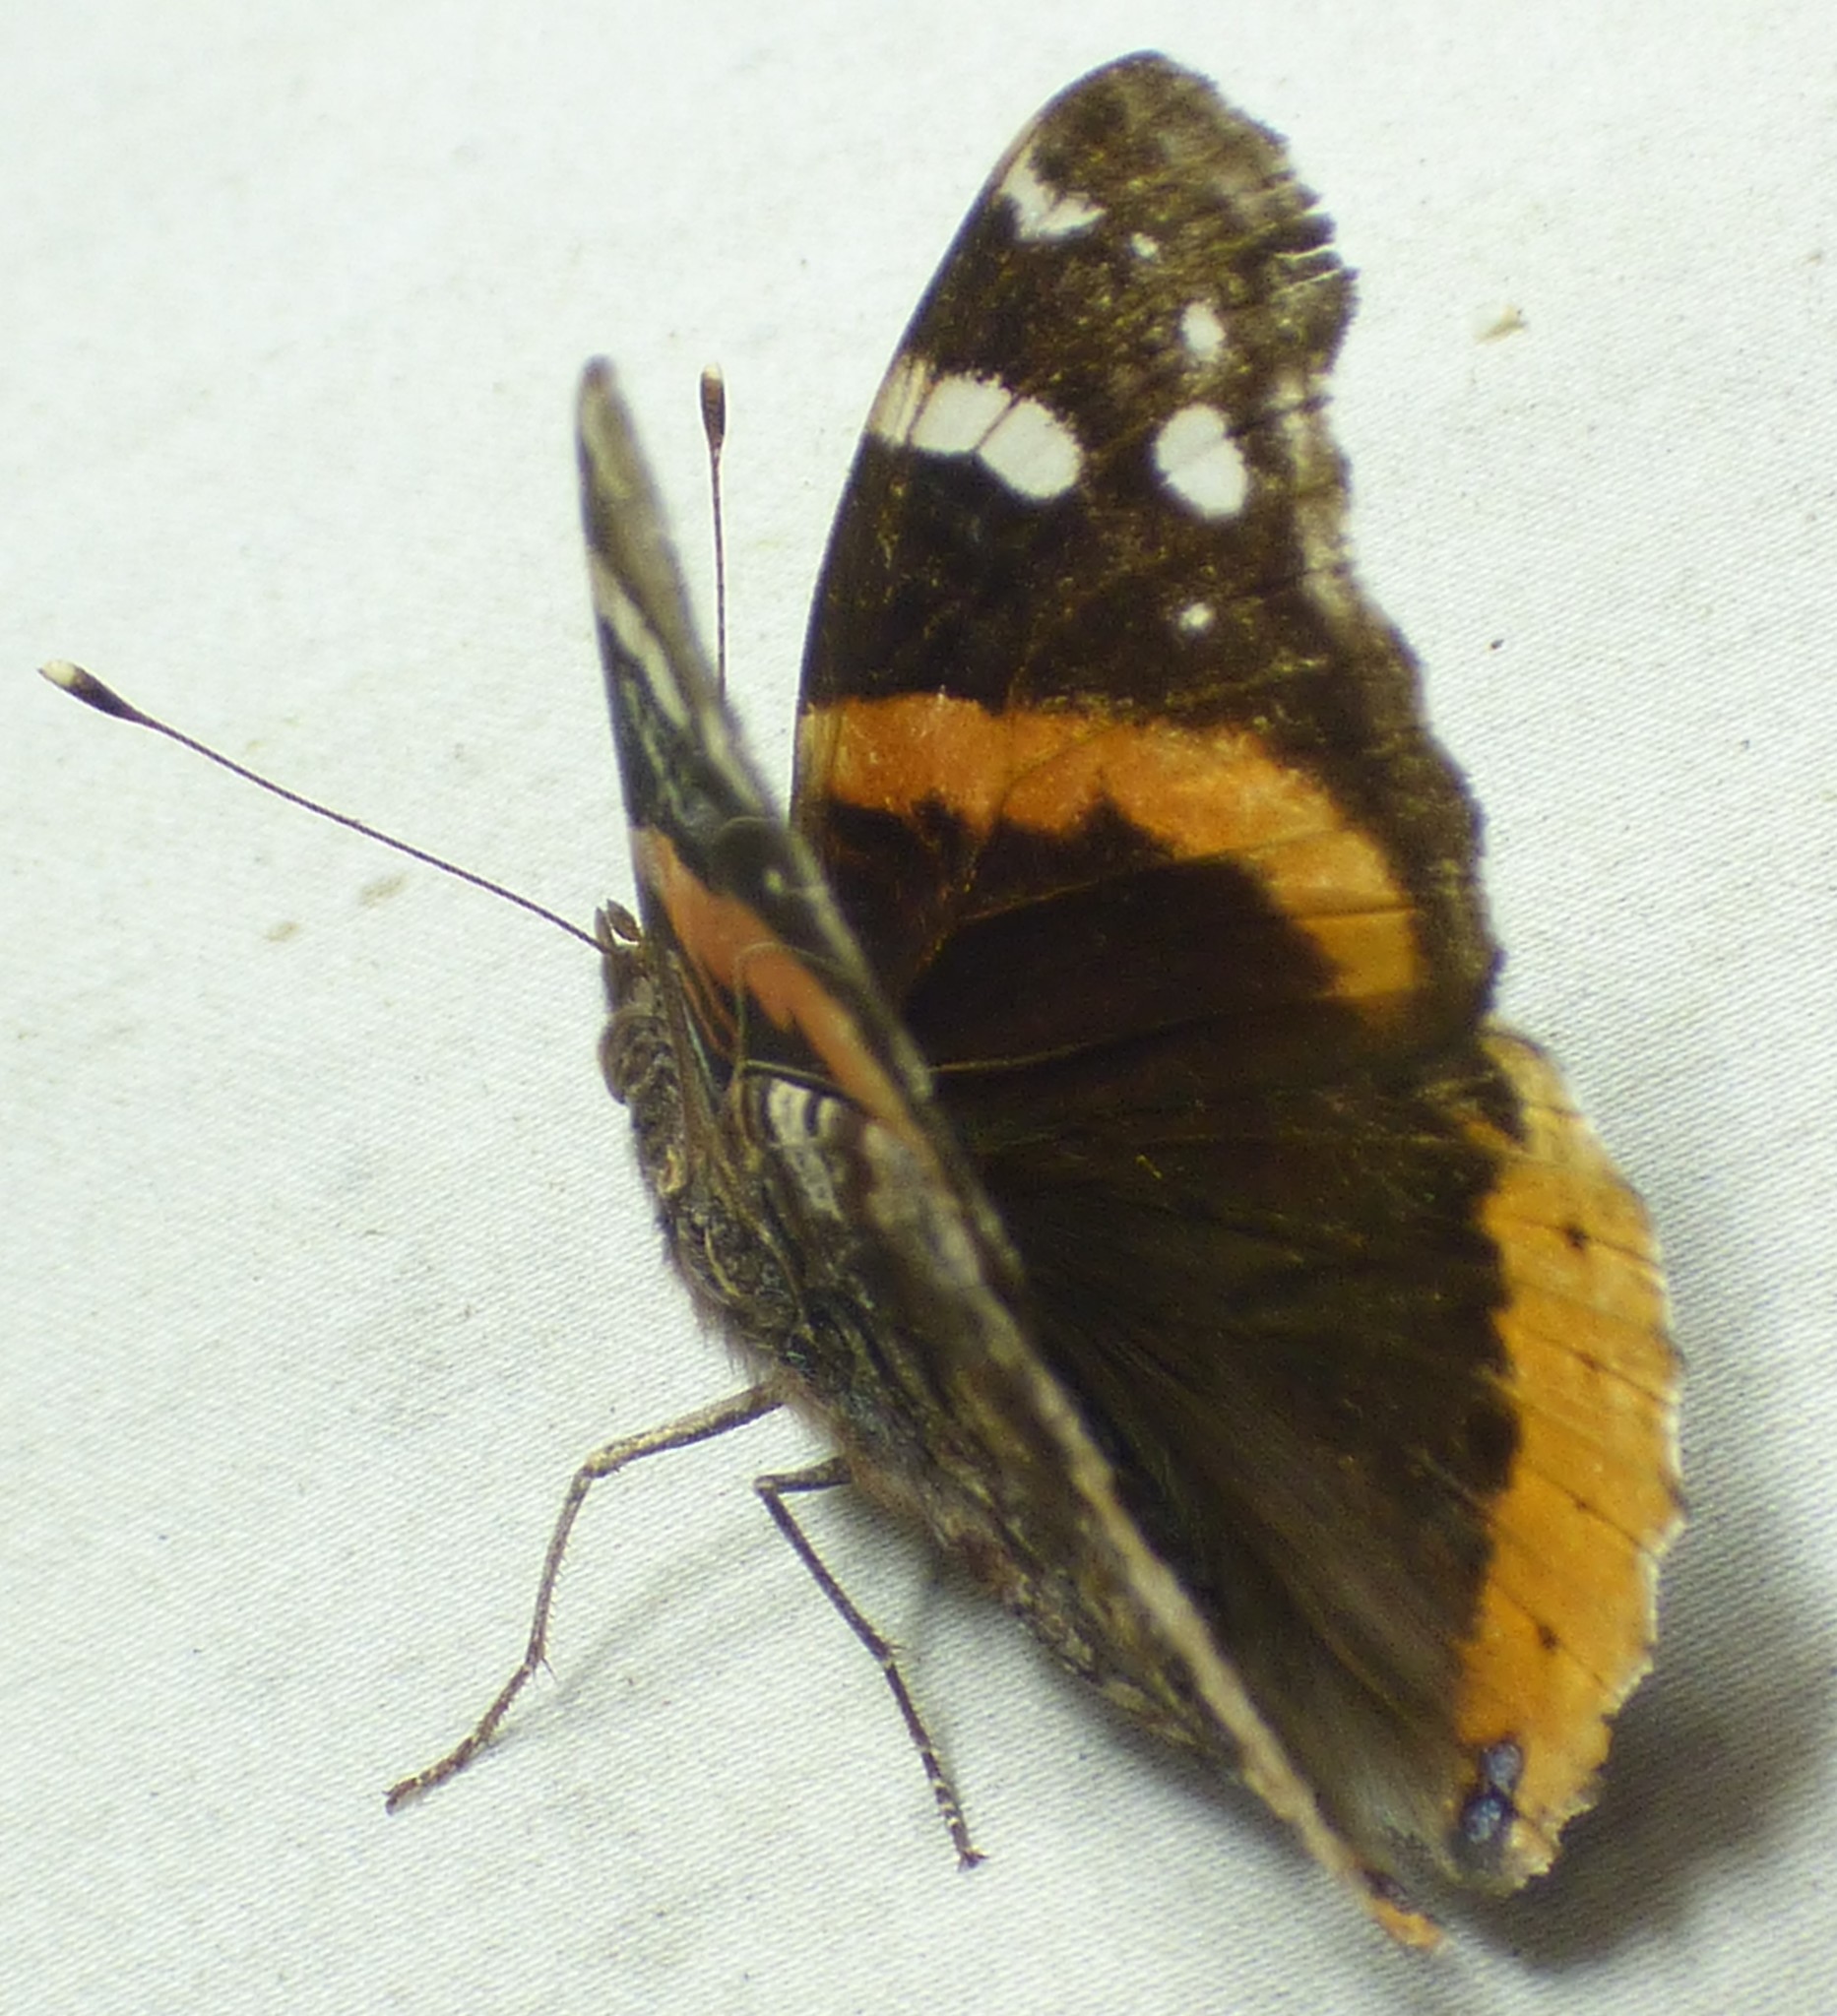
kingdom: Animalia
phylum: Arthropoda
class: Insecta
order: Lepidoptera
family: Nymphalidae
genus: Vanessa
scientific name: Vanessa atalanta
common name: Red admiral
